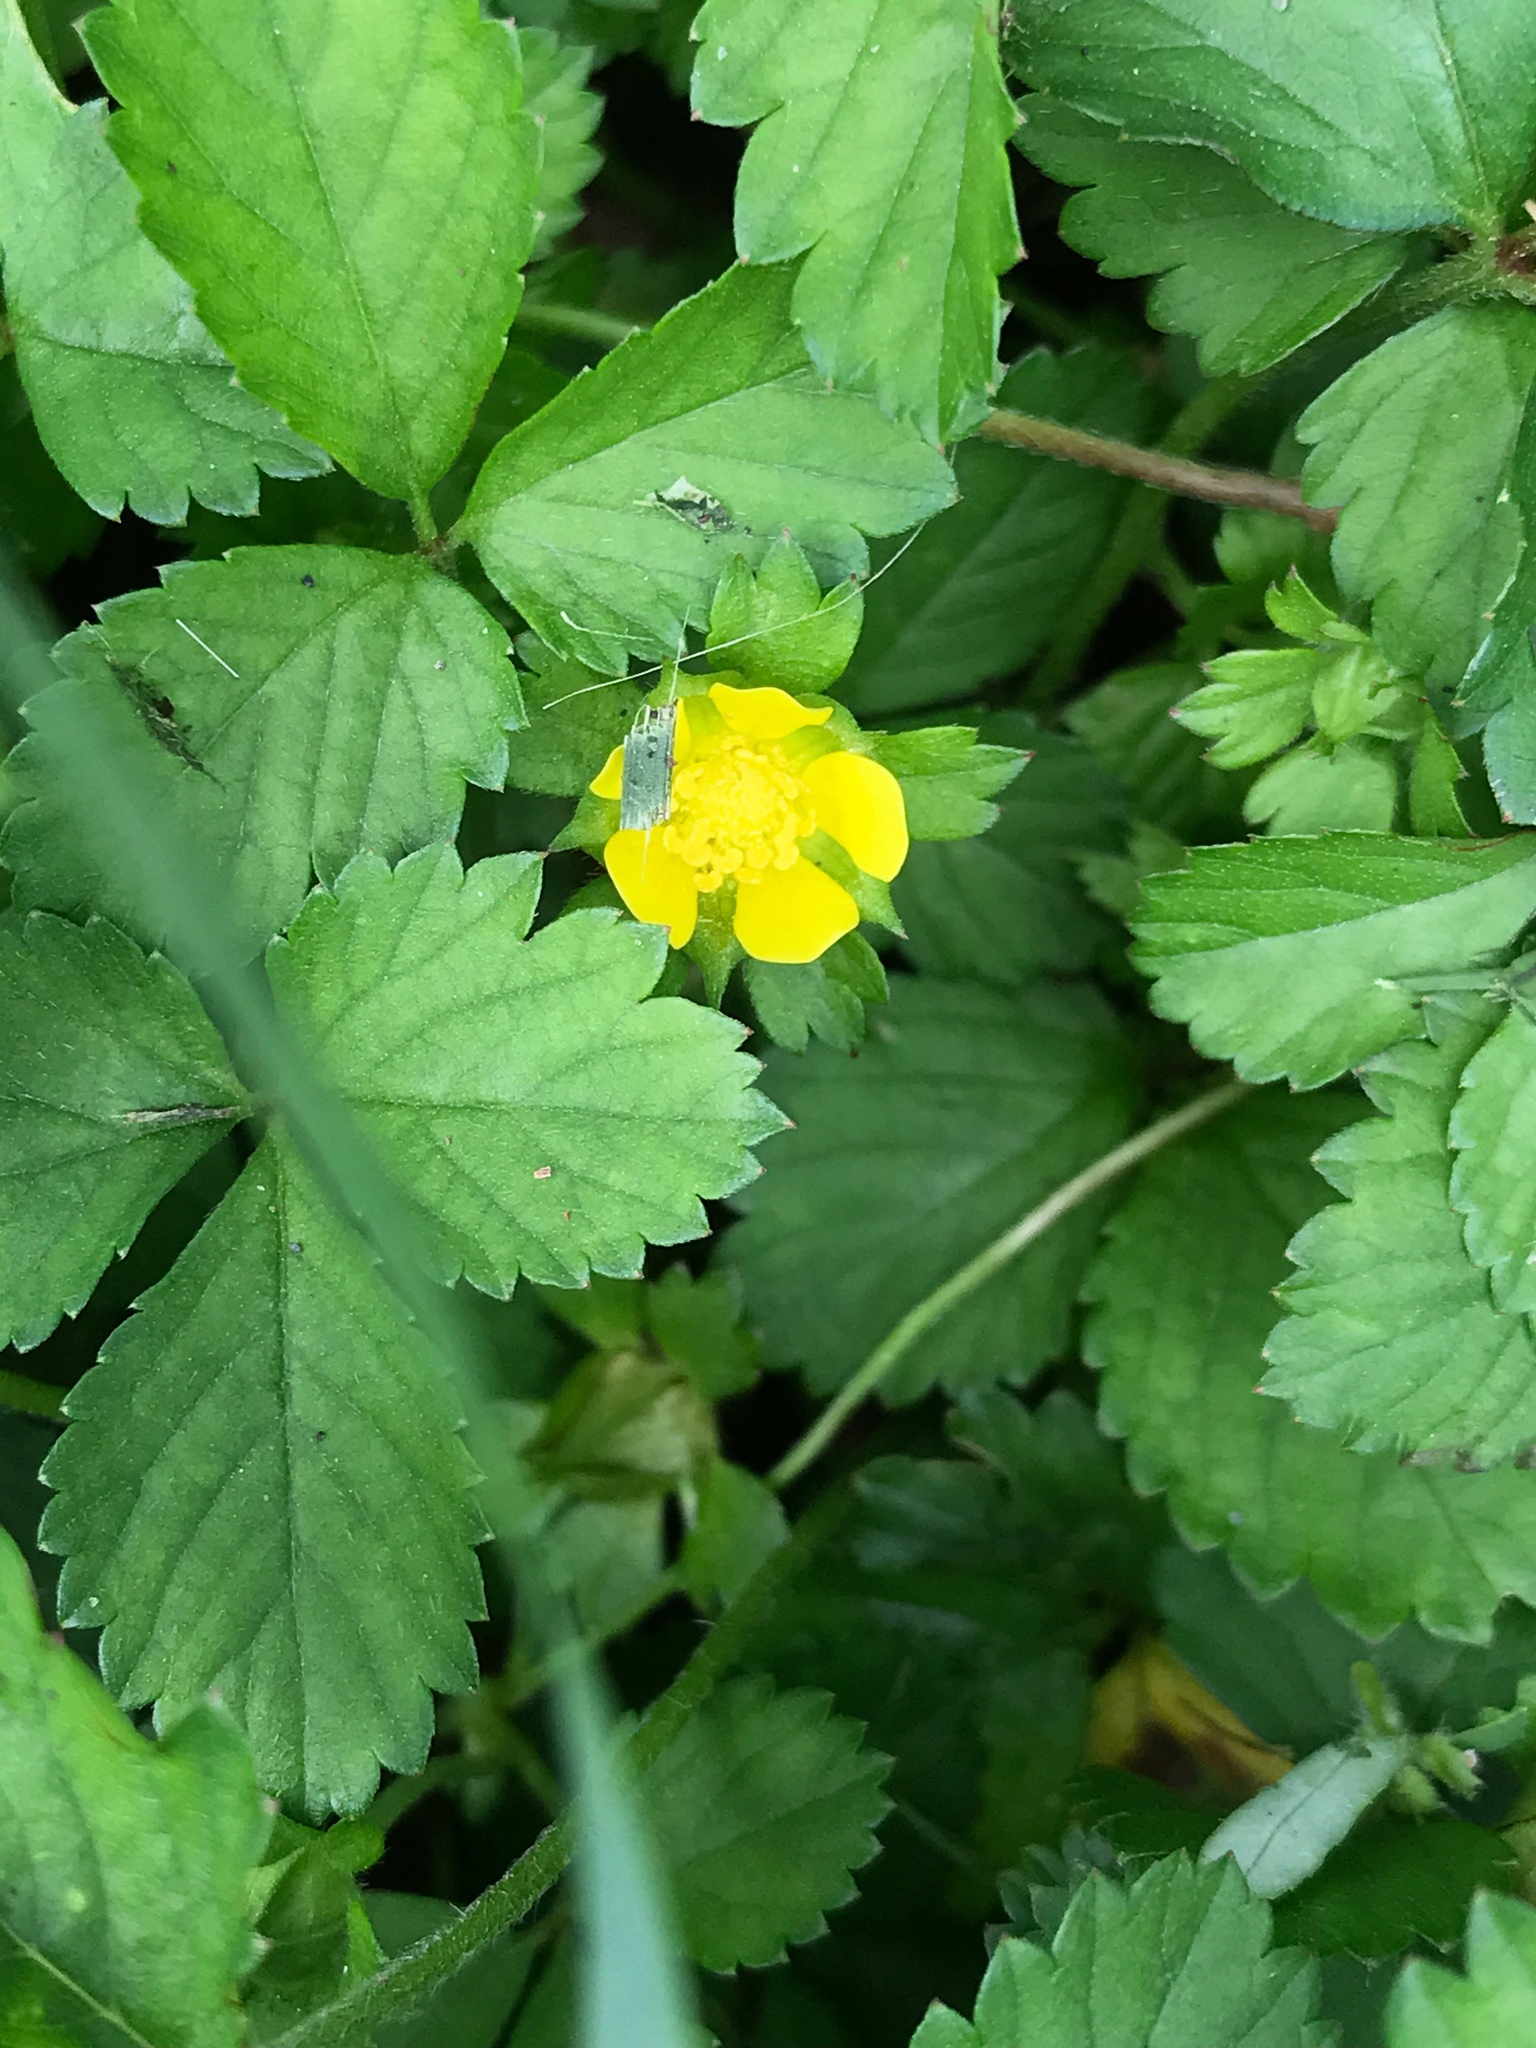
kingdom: Plantae
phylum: Tracheophyta
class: Magnoliopsida
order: Rosales
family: Rosaceae
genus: Potentilla
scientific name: Potentilla indica
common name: Yellow-flowered strawberry
